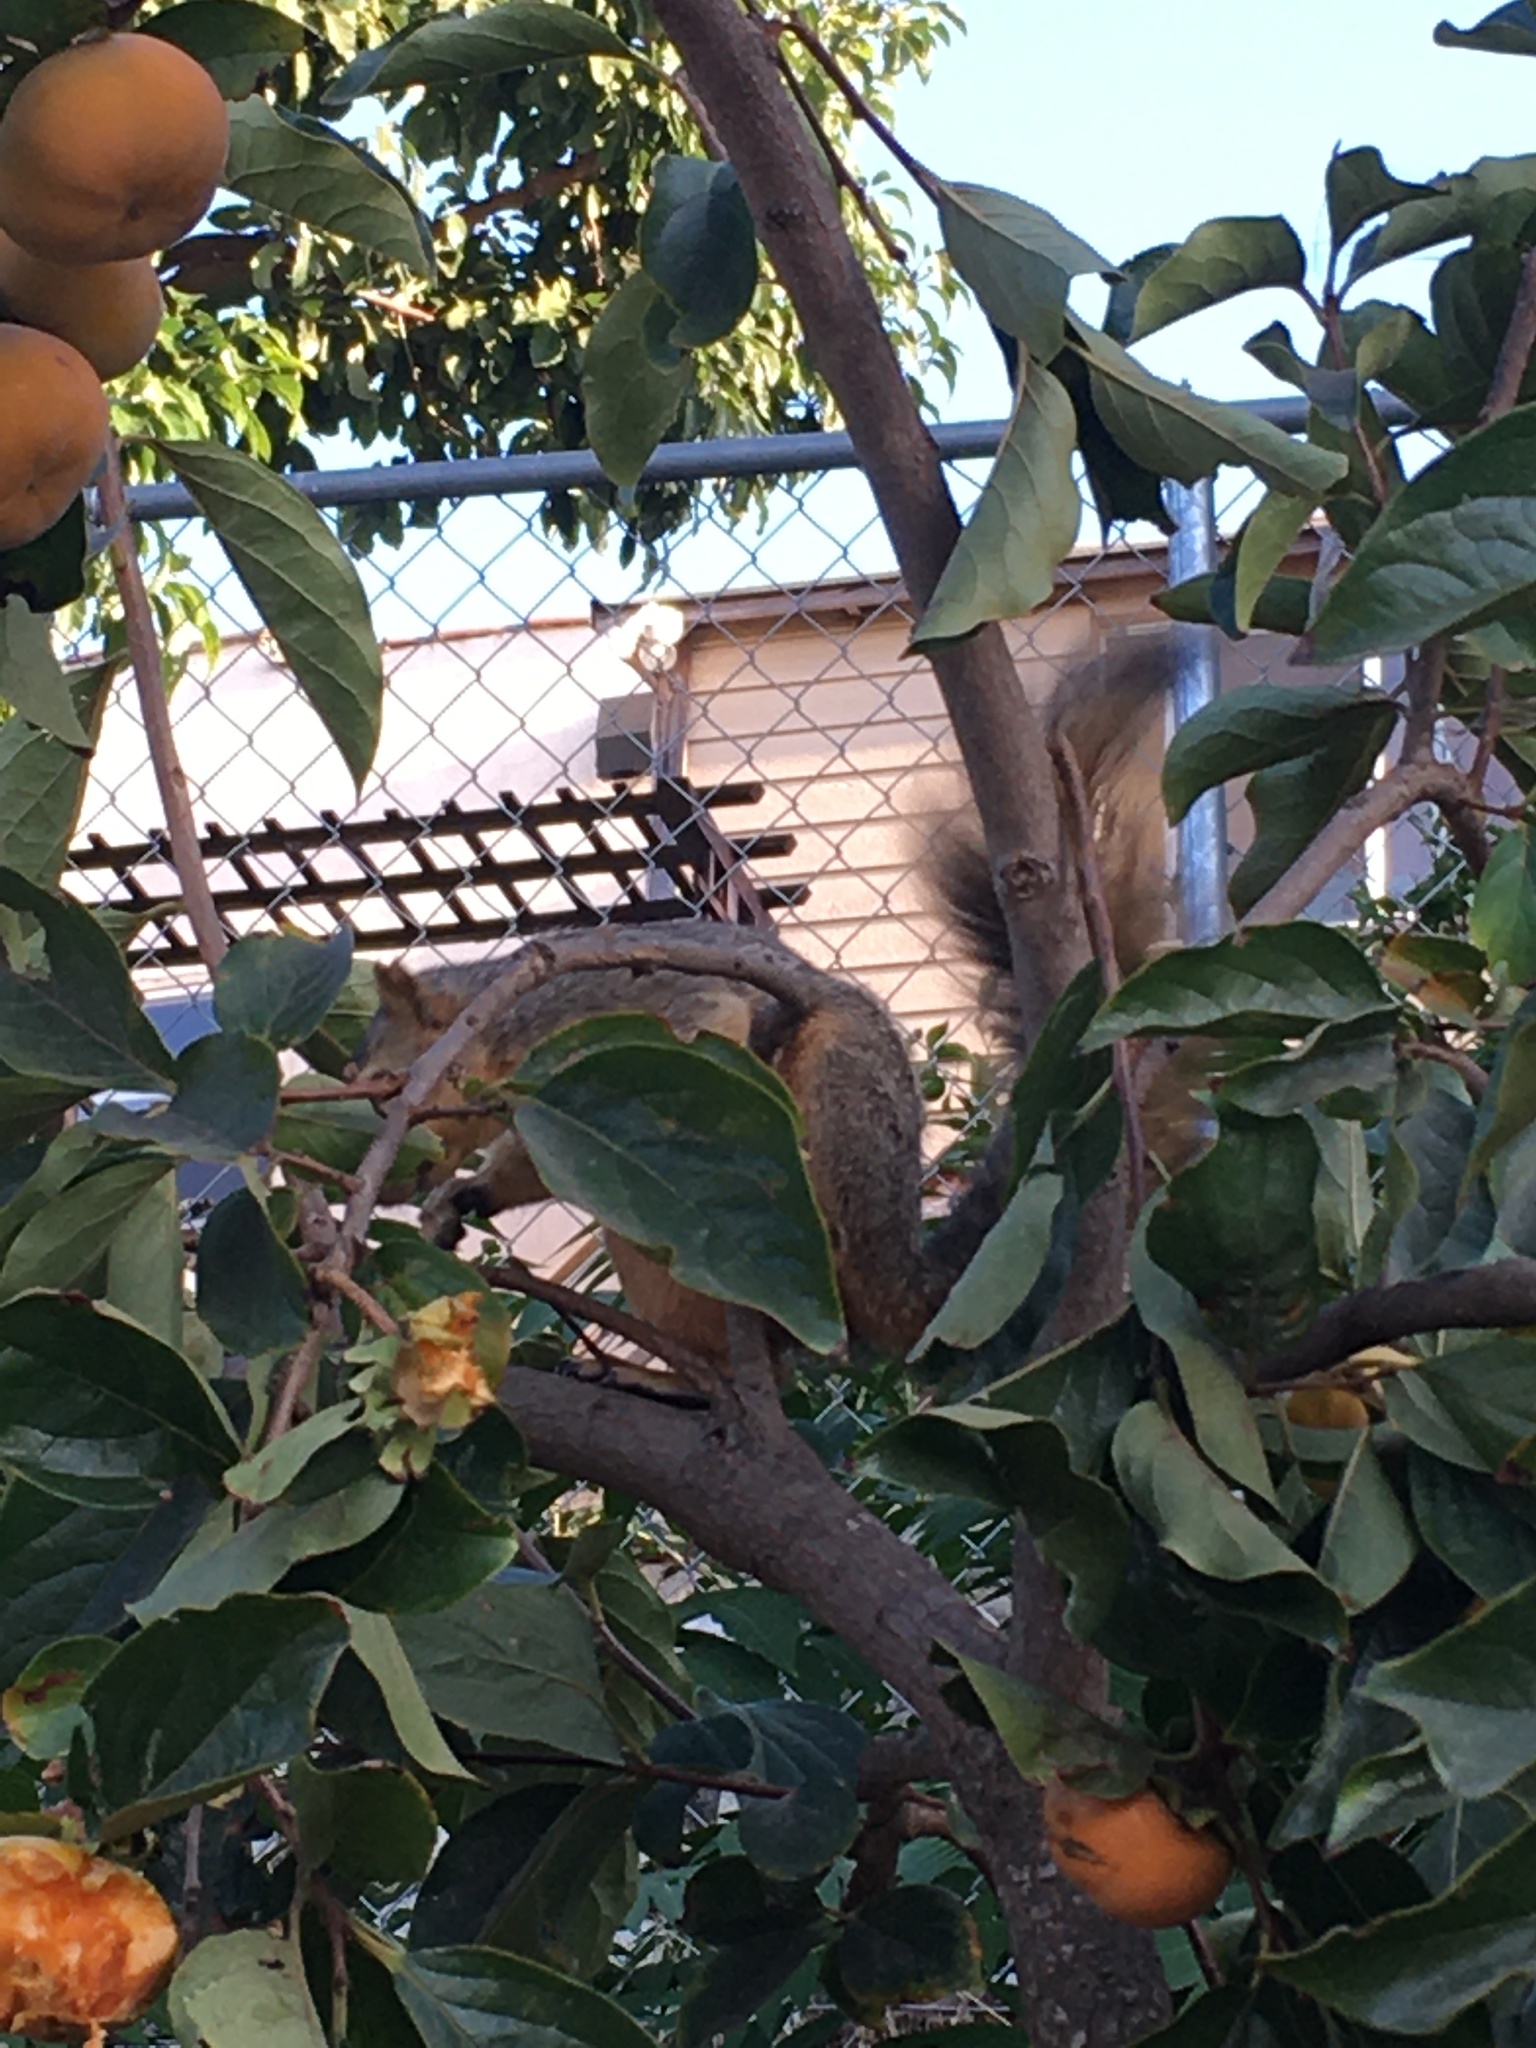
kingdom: Animalia
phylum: Chordata
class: Mammalia
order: Rodentia
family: Sciuridae
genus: Sciurus
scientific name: Sciurus niger
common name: Fox squirrel
